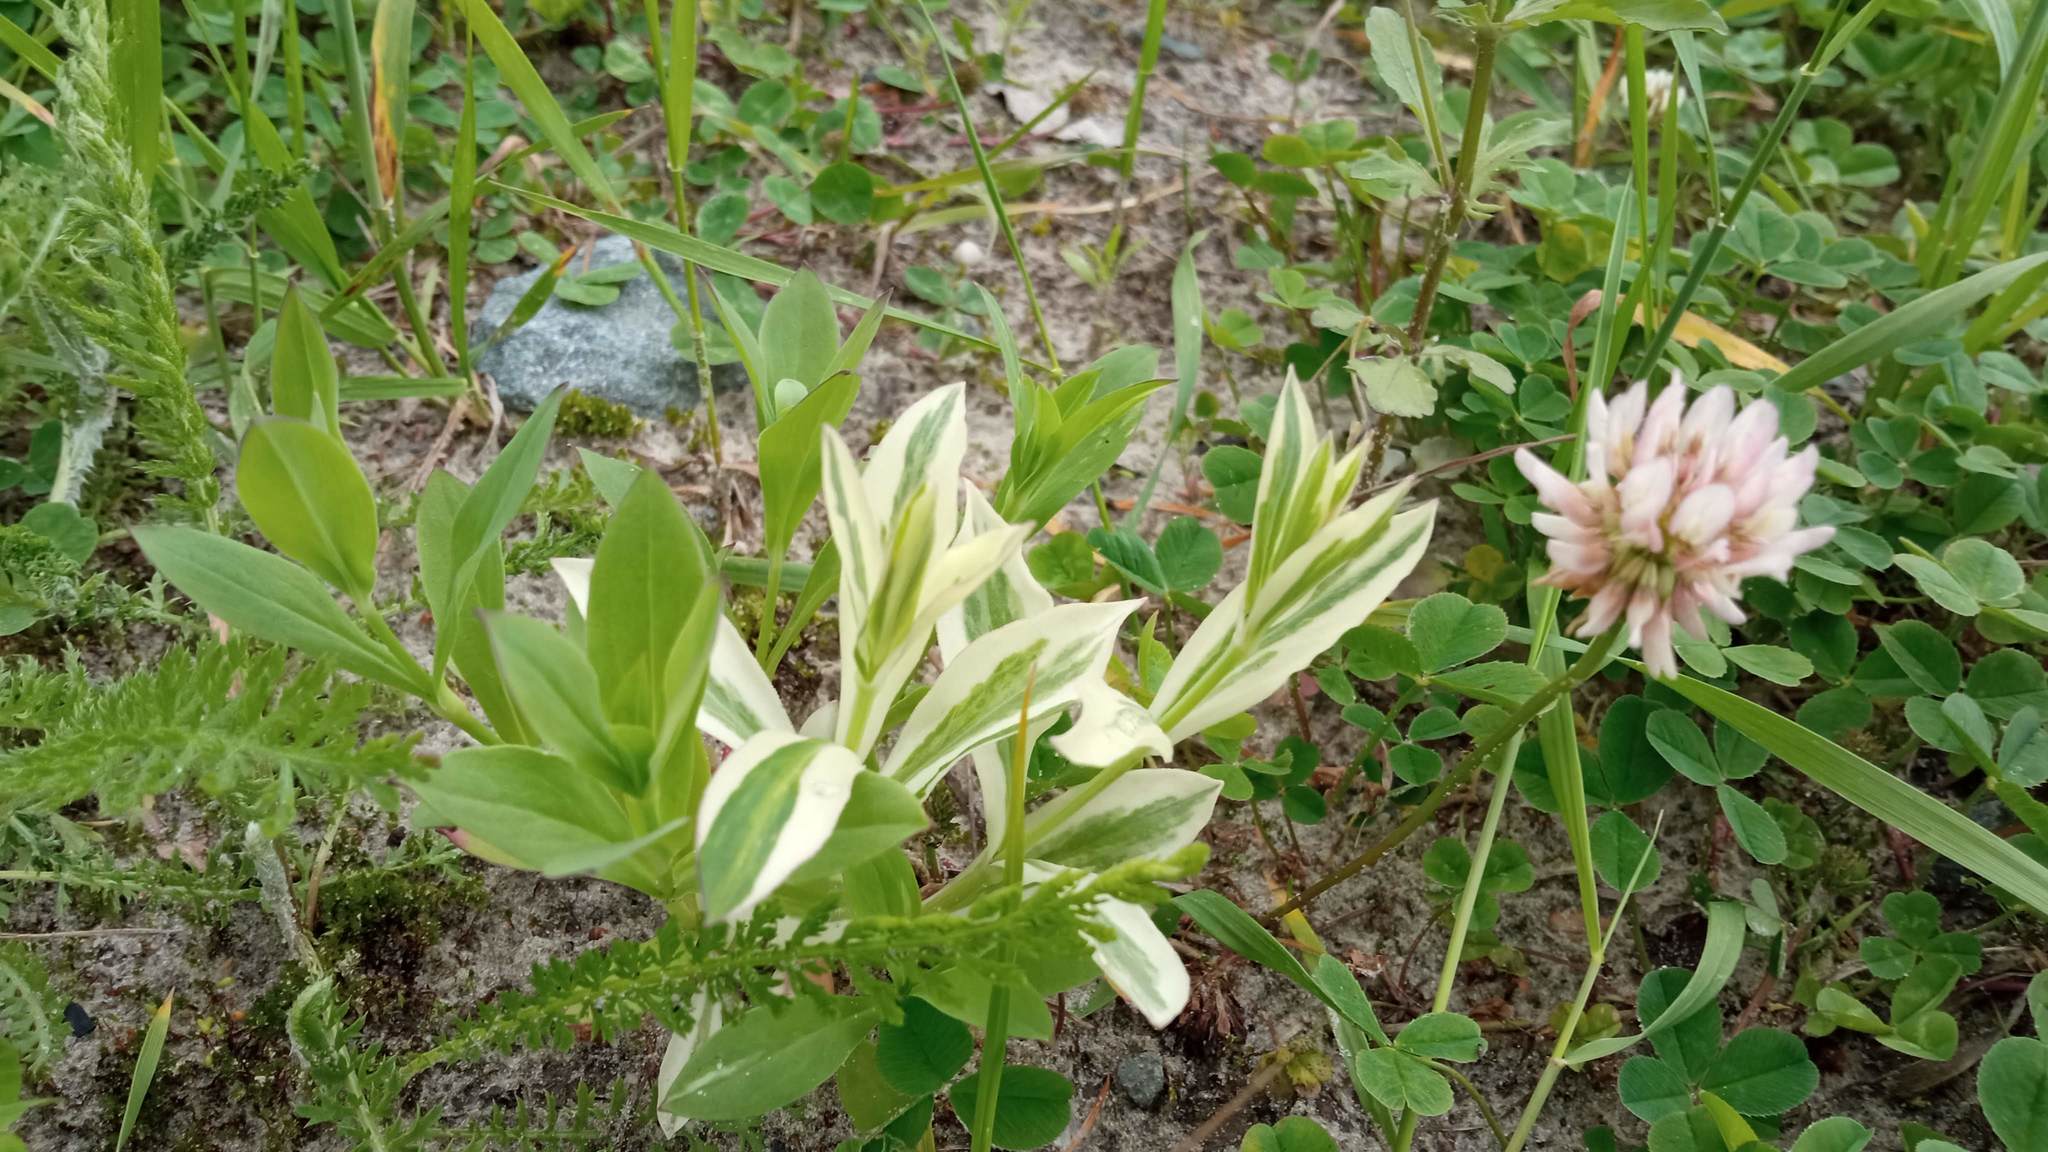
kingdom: Plantae
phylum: Tracheophyta
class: Magnoliopsida
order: Caryophyllales
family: Caryophyllaceae
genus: Silene
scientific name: Silene vulgaris
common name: Bladder campion
